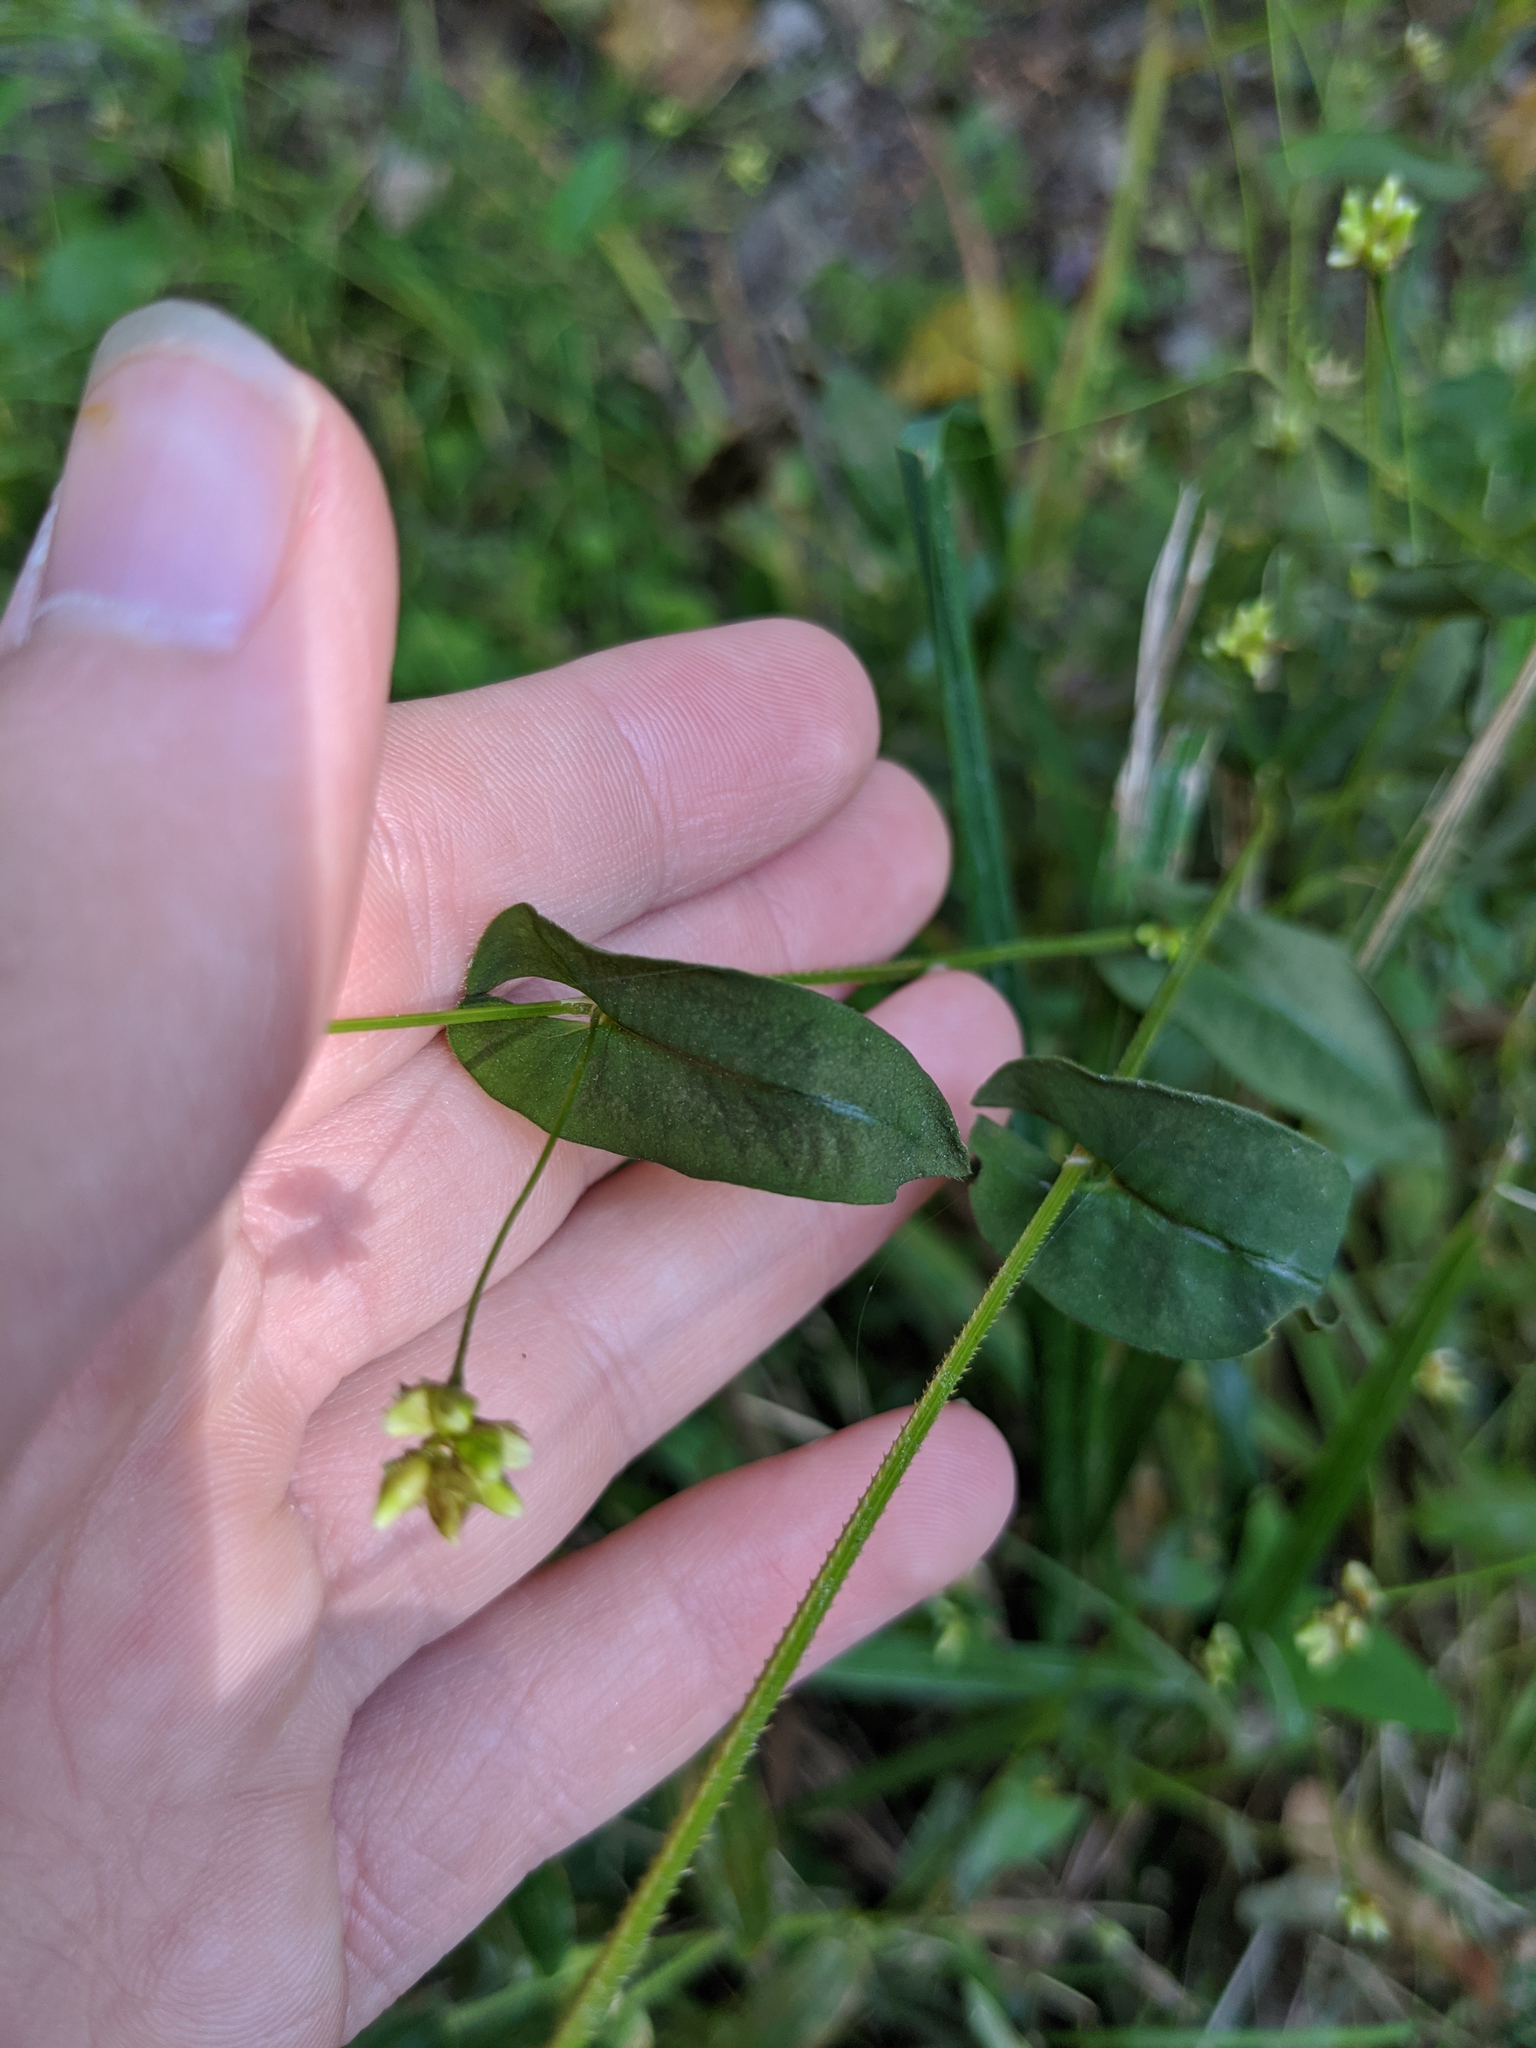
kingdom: Plantae
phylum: Tracheophyta
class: Magnoliopsida
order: Caryophyllales
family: Polygonaceae
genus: Persicaria
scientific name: Persicaria sagittata
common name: American tearthumb
